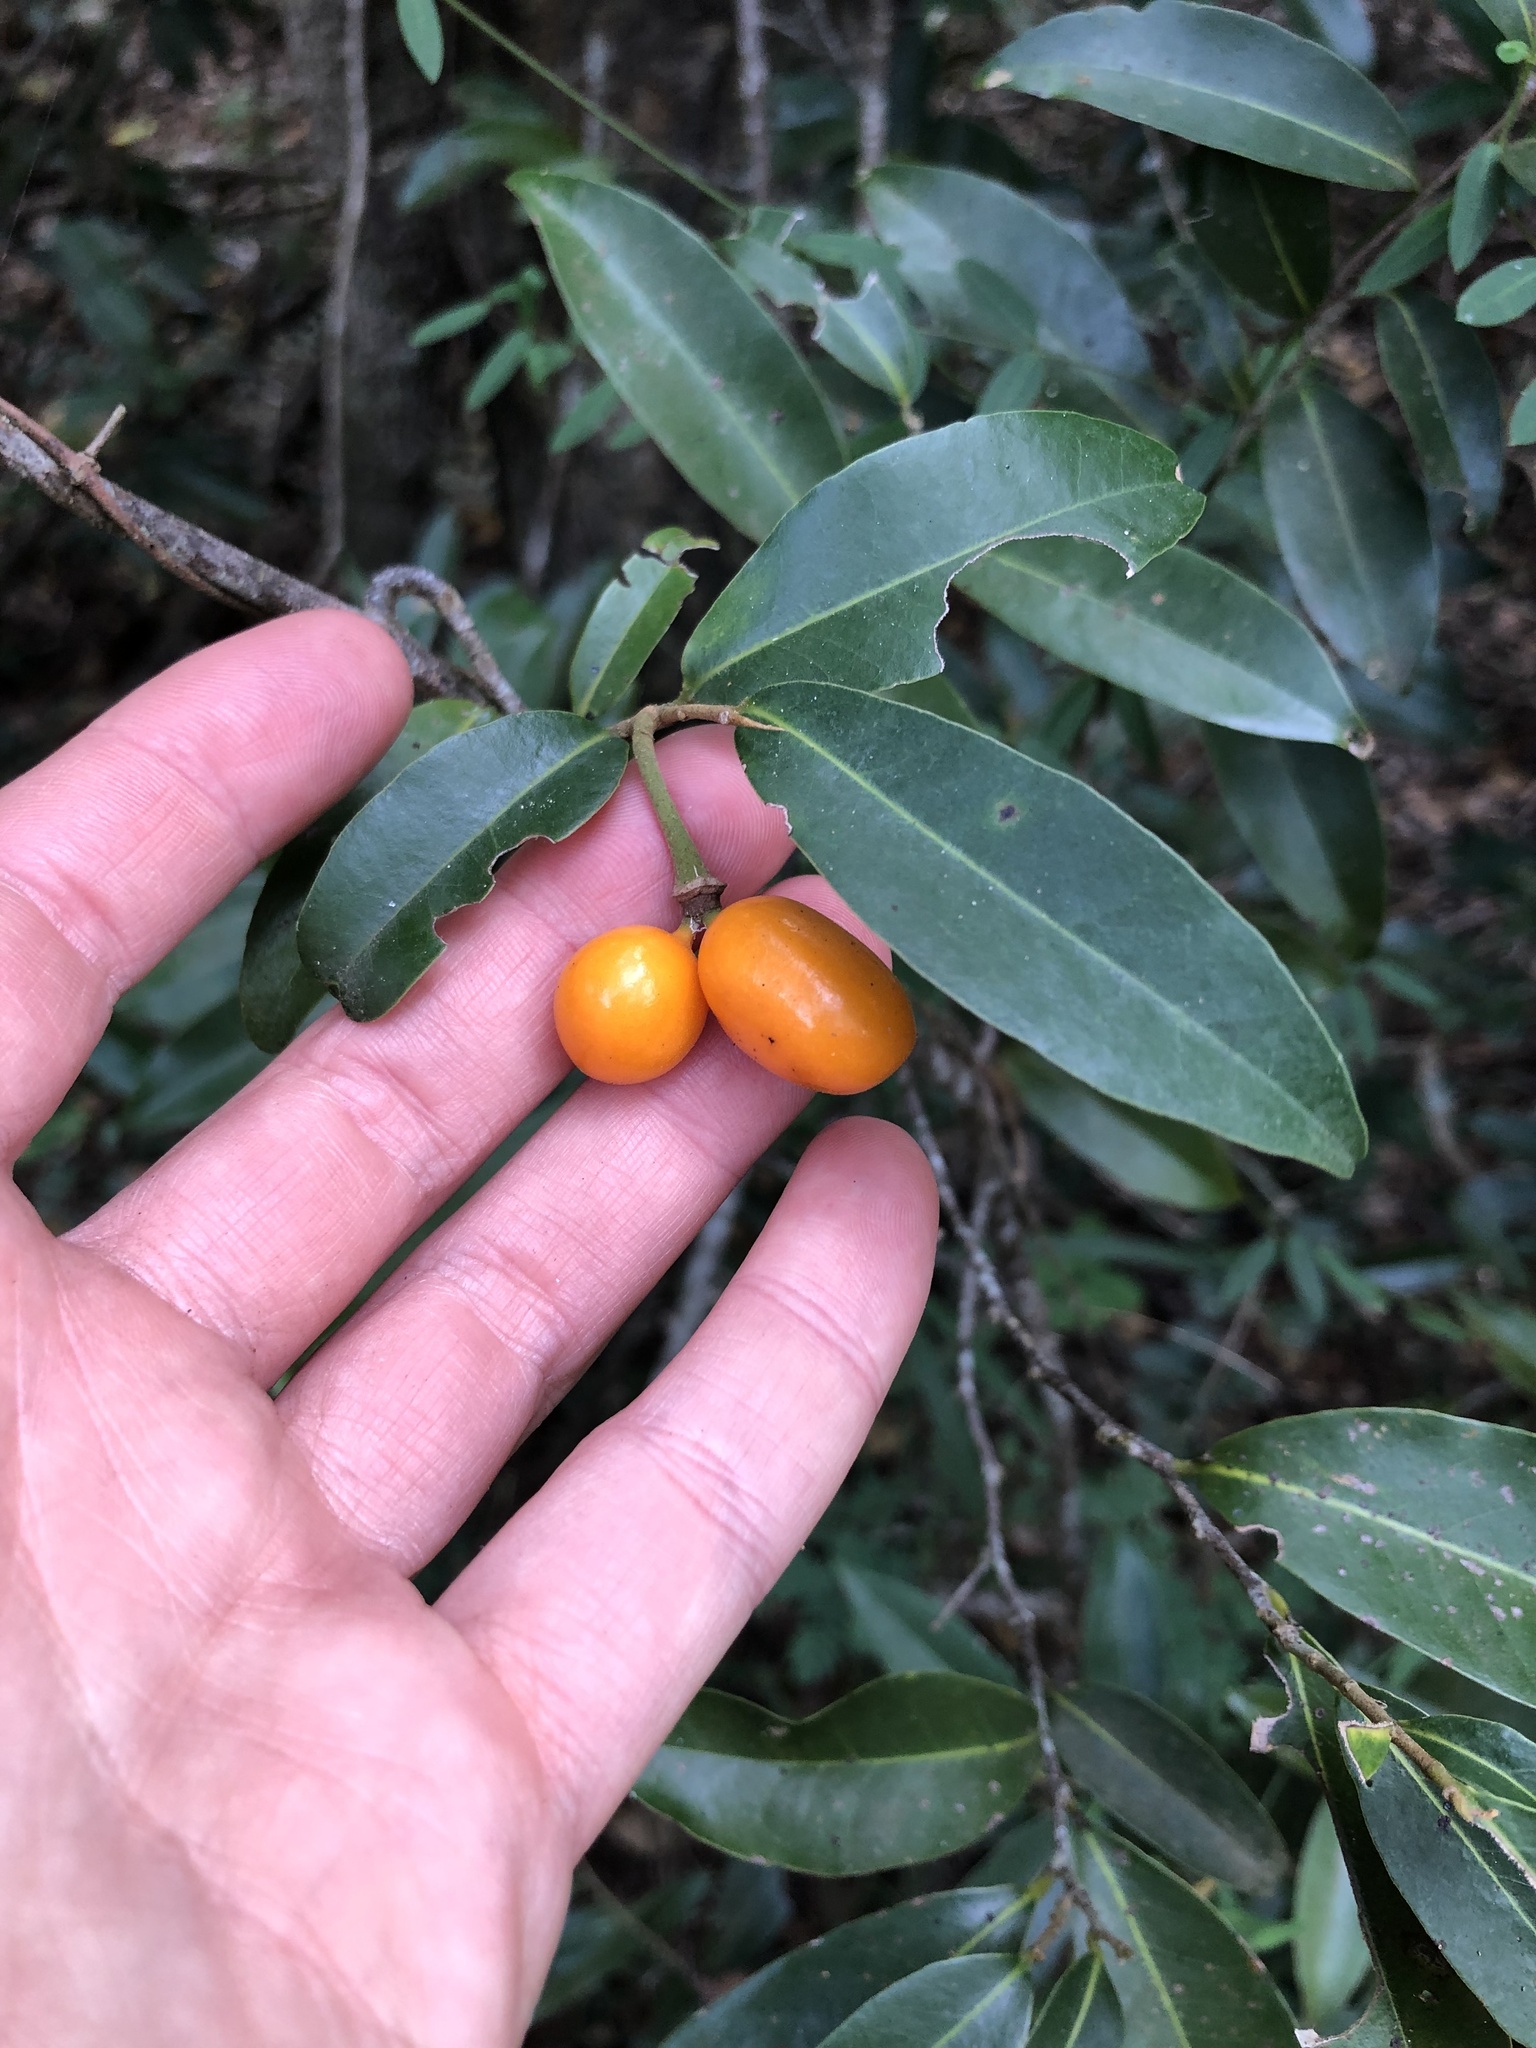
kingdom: Plantae
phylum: Tracheophyta
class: Magnoliopsida
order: Magnoliales
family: Annonaceae
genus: Uvaria
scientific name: Uvaria caffra
